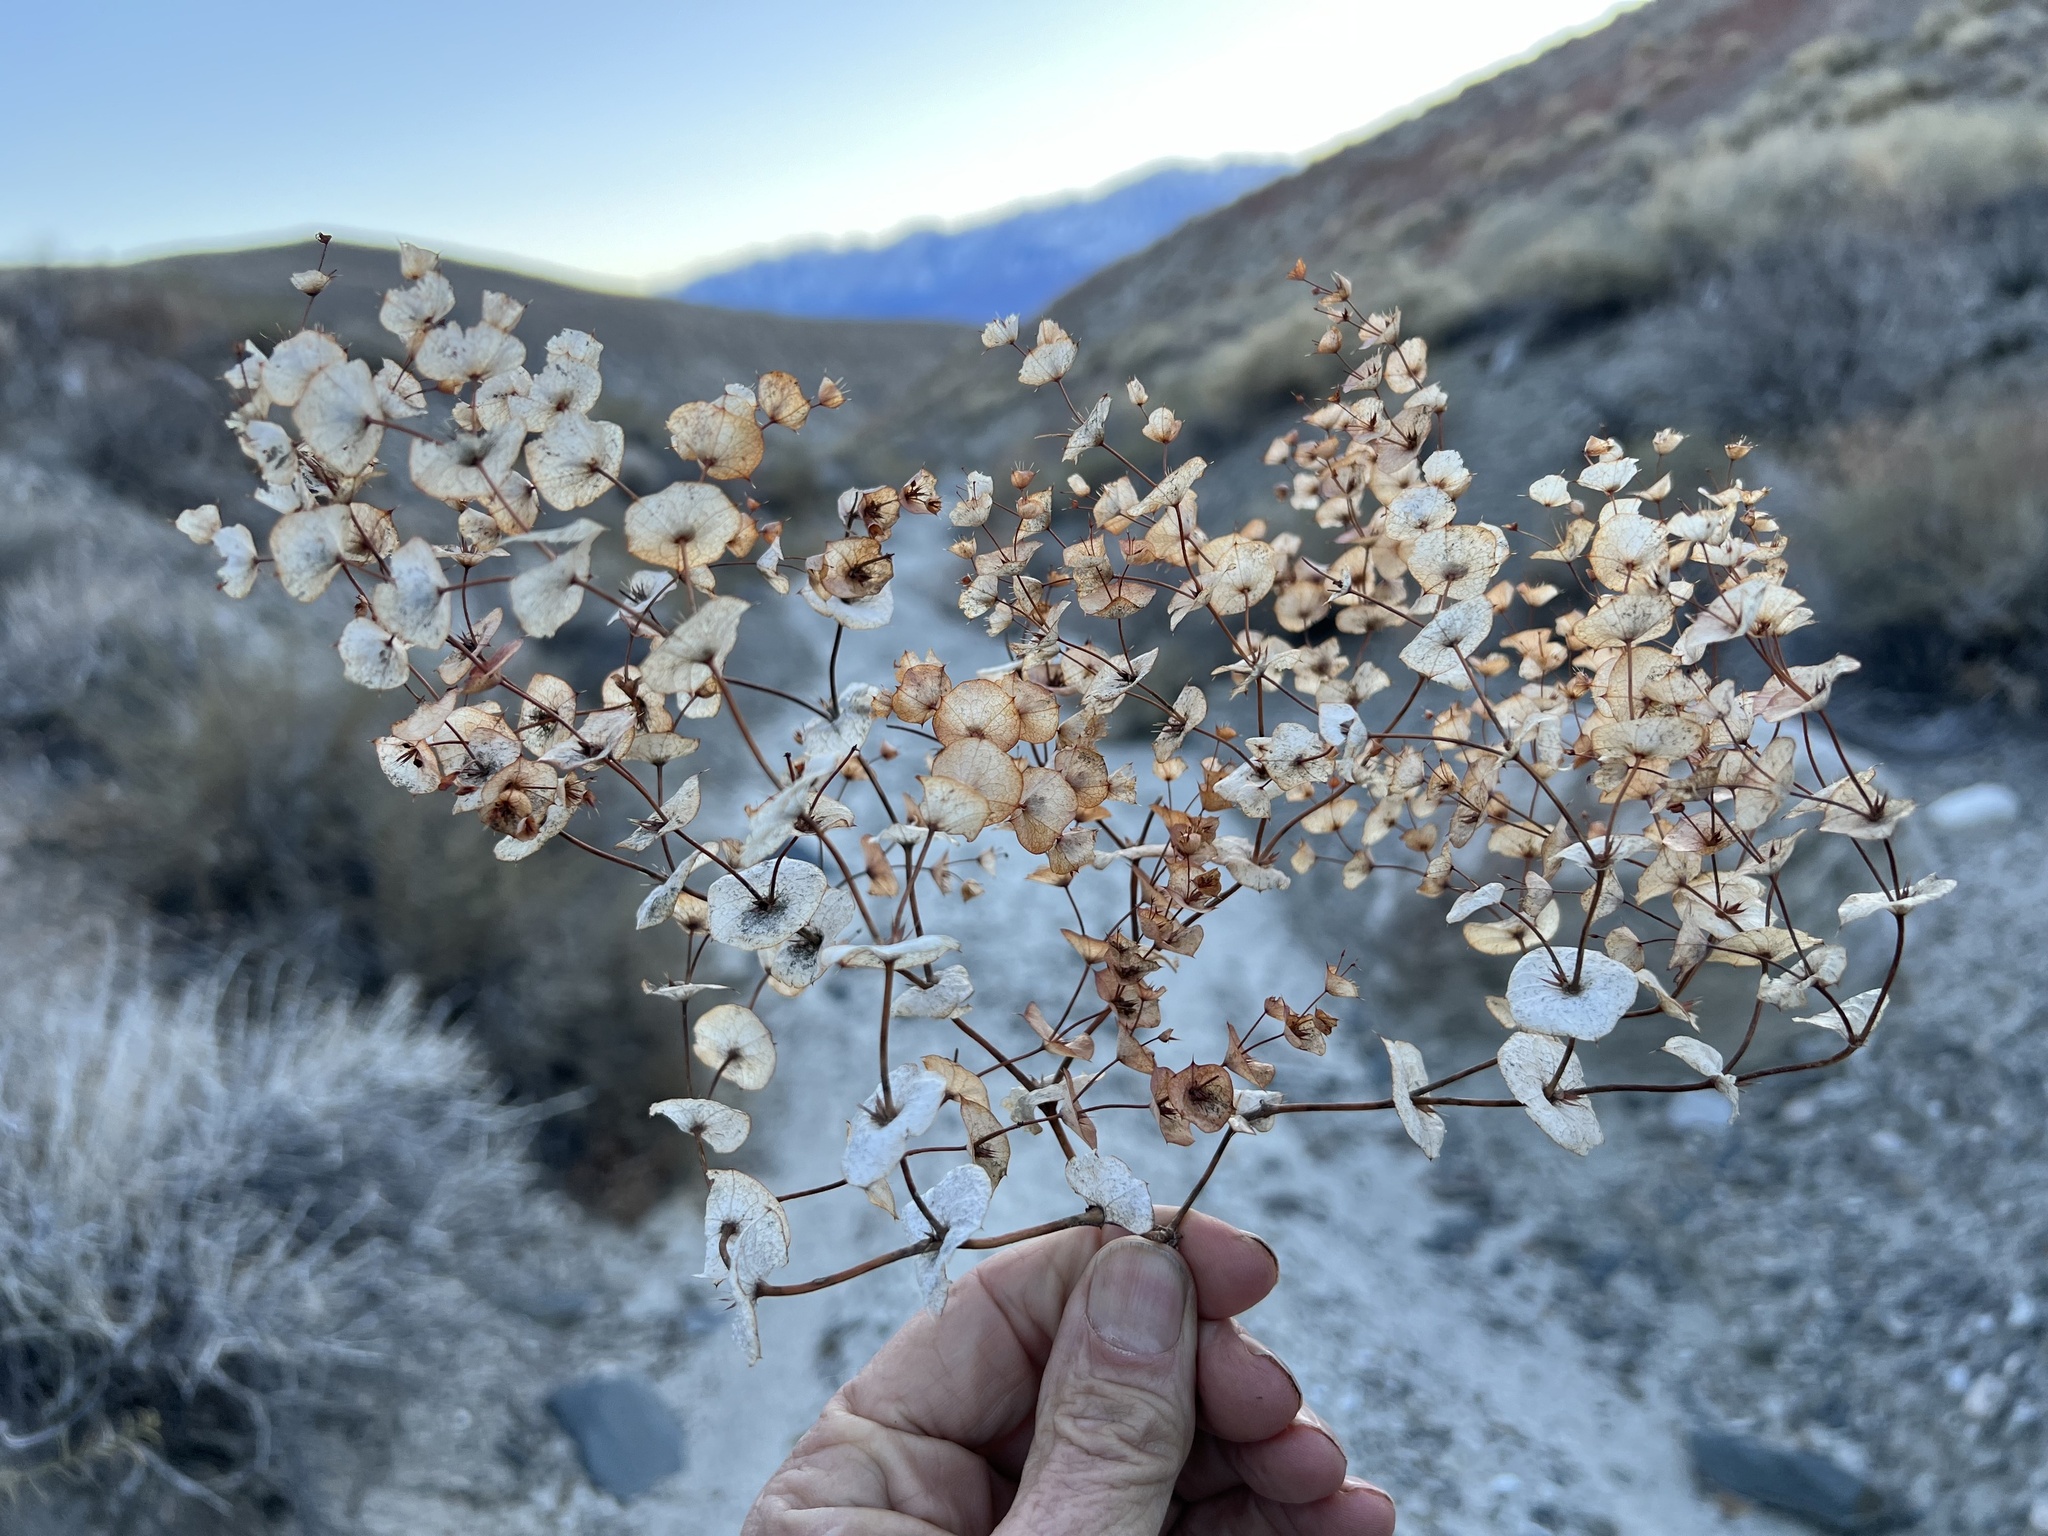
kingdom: Plantae
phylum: Tracheophyta
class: Magnoliopsida
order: Caryophyllales
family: Polygonaceae
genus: Oxytheca
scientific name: Oxytheca perfoliata
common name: Round-leaf puncturebract
